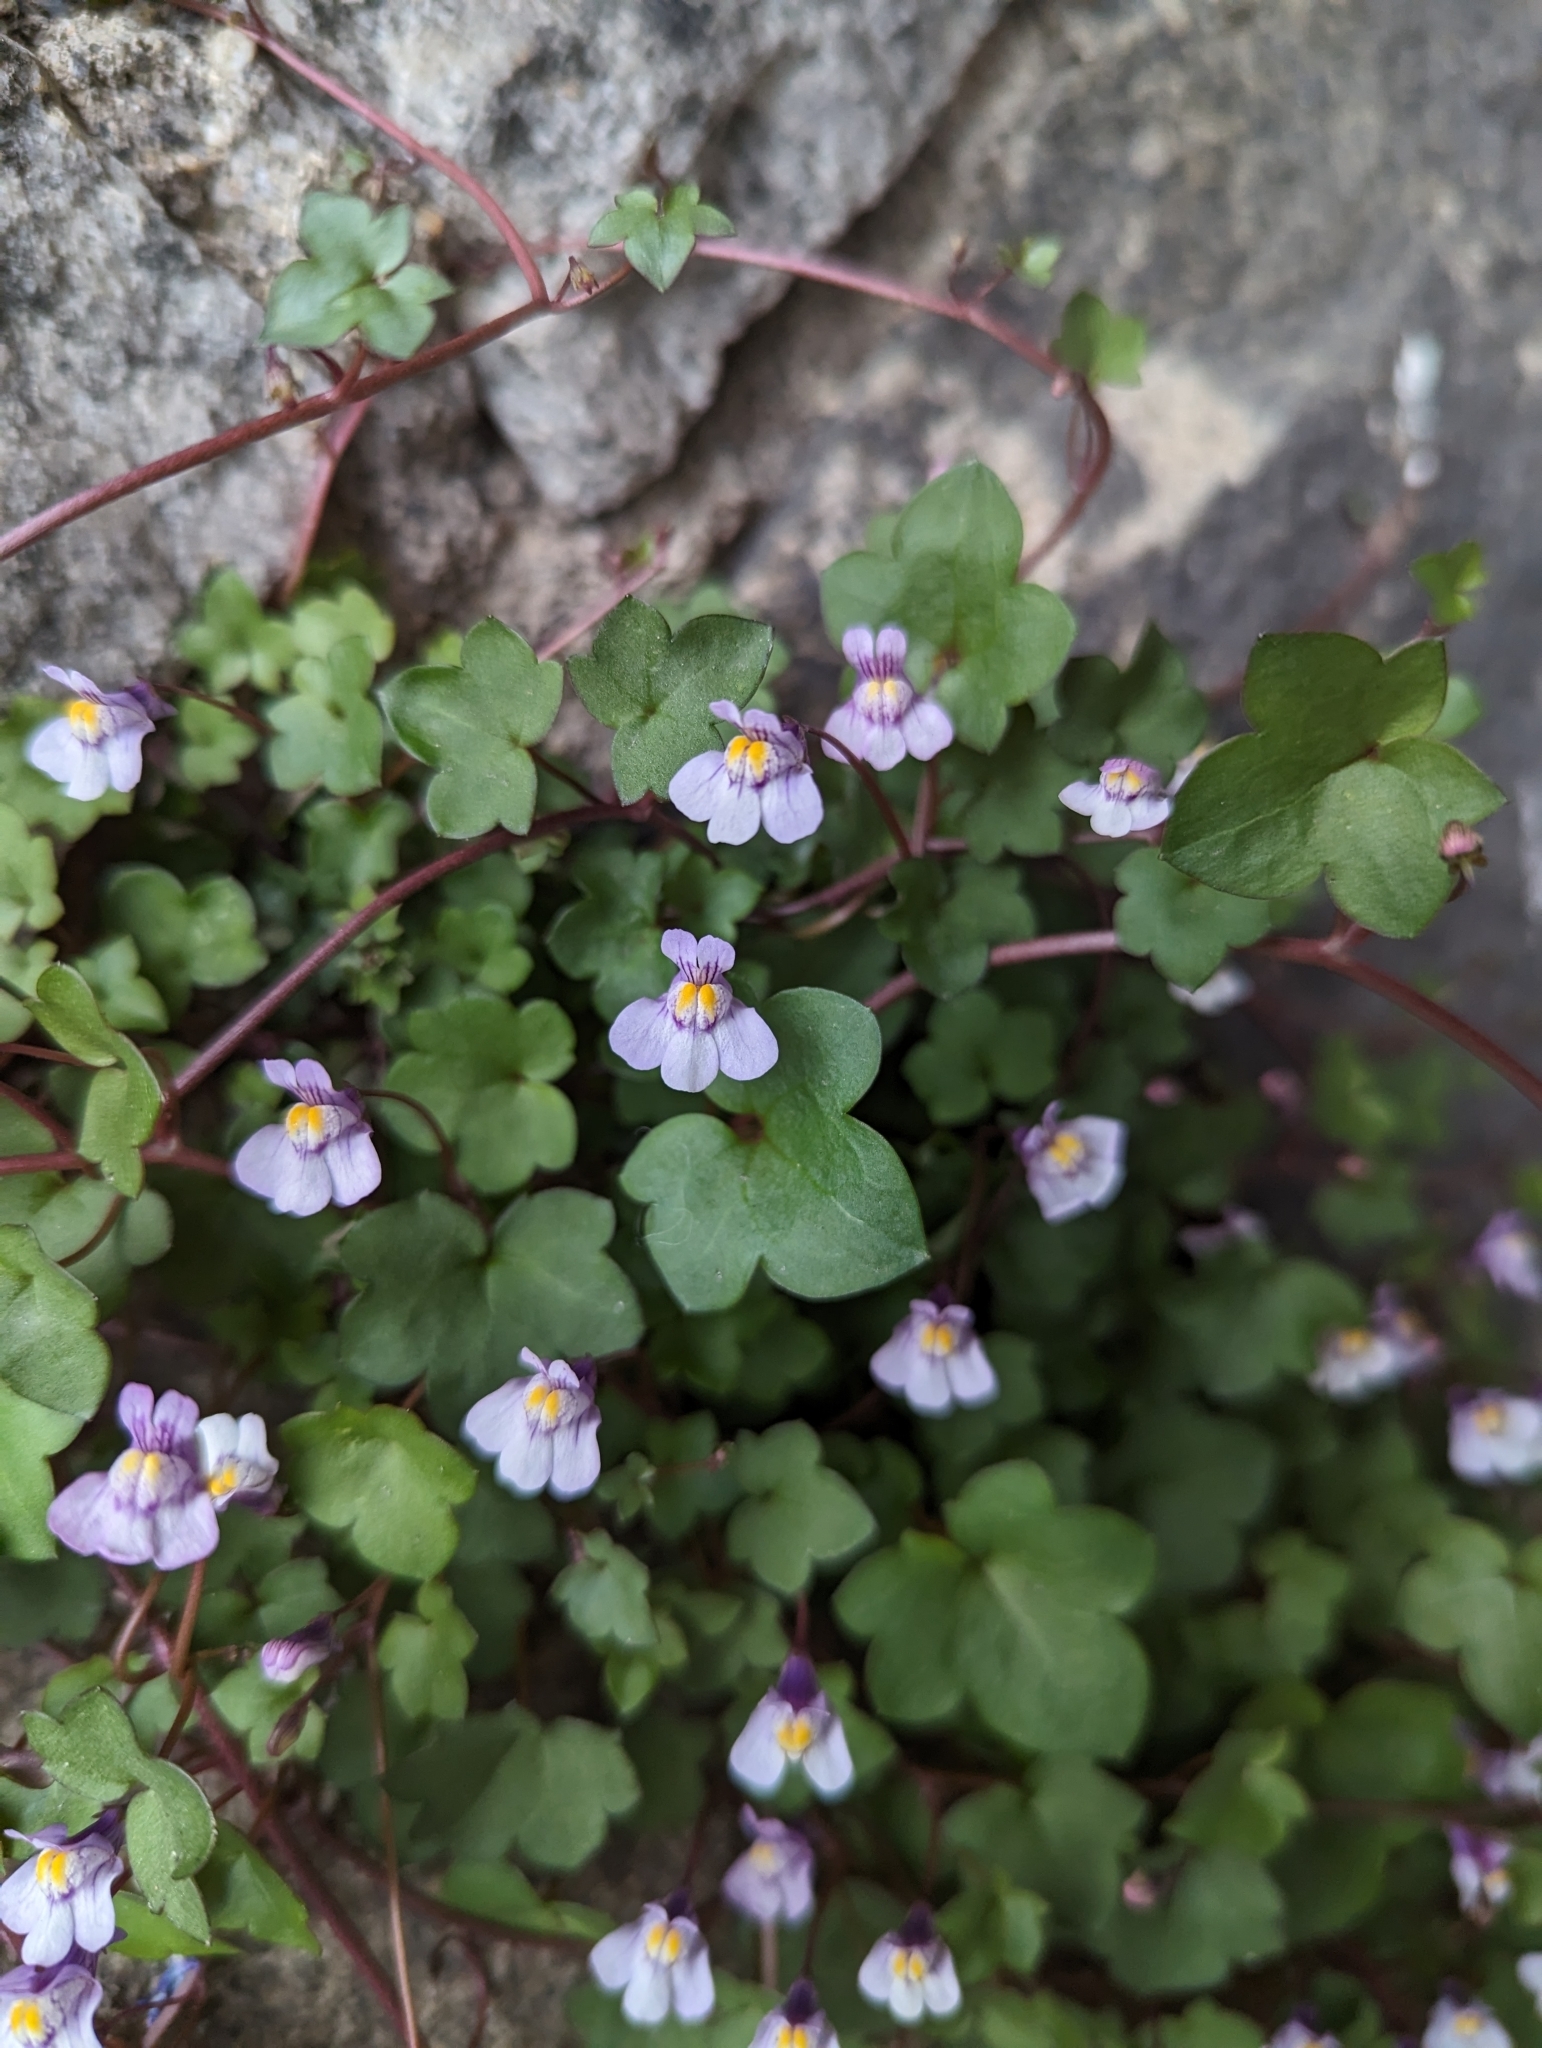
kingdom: Plantae
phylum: Tracheophyta
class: Magnoliopsida
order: Lamiales
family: Plantaginaceae
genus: Cymbalaria
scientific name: Cymbalaria muralis
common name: Ivy-leaved toadflax
